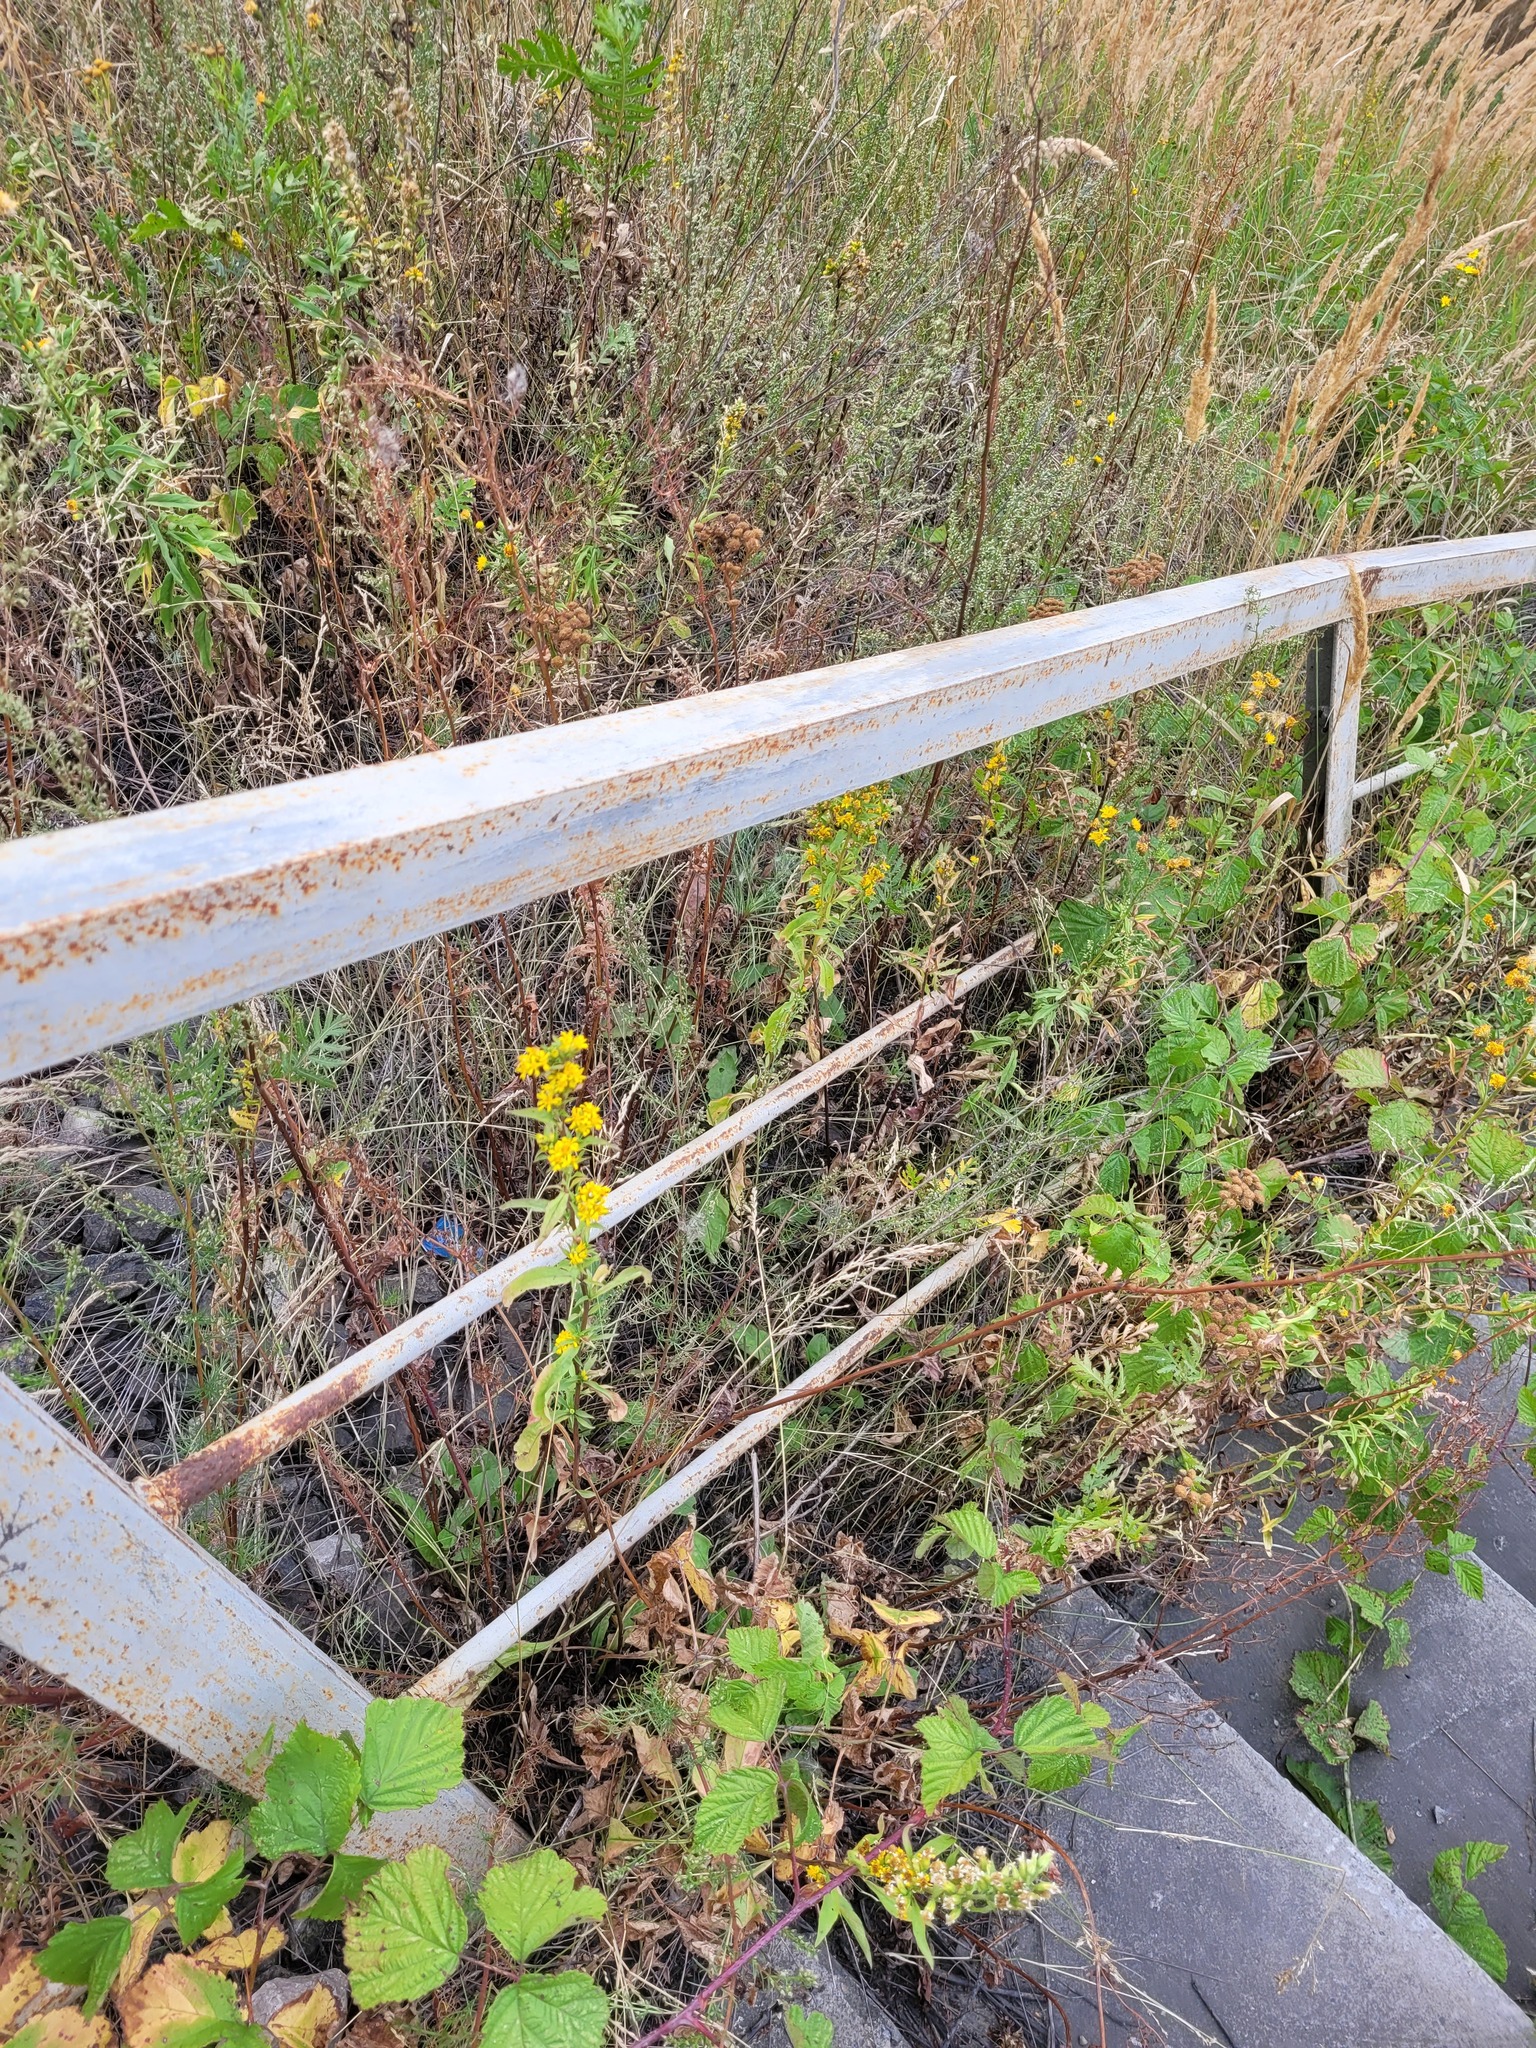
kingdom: Plantae
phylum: Tracheophyta
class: Magnoliopsida
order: Asterales
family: Asteraceae
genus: Solidago
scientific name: Solidago virgaurea
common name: Goldenrod
